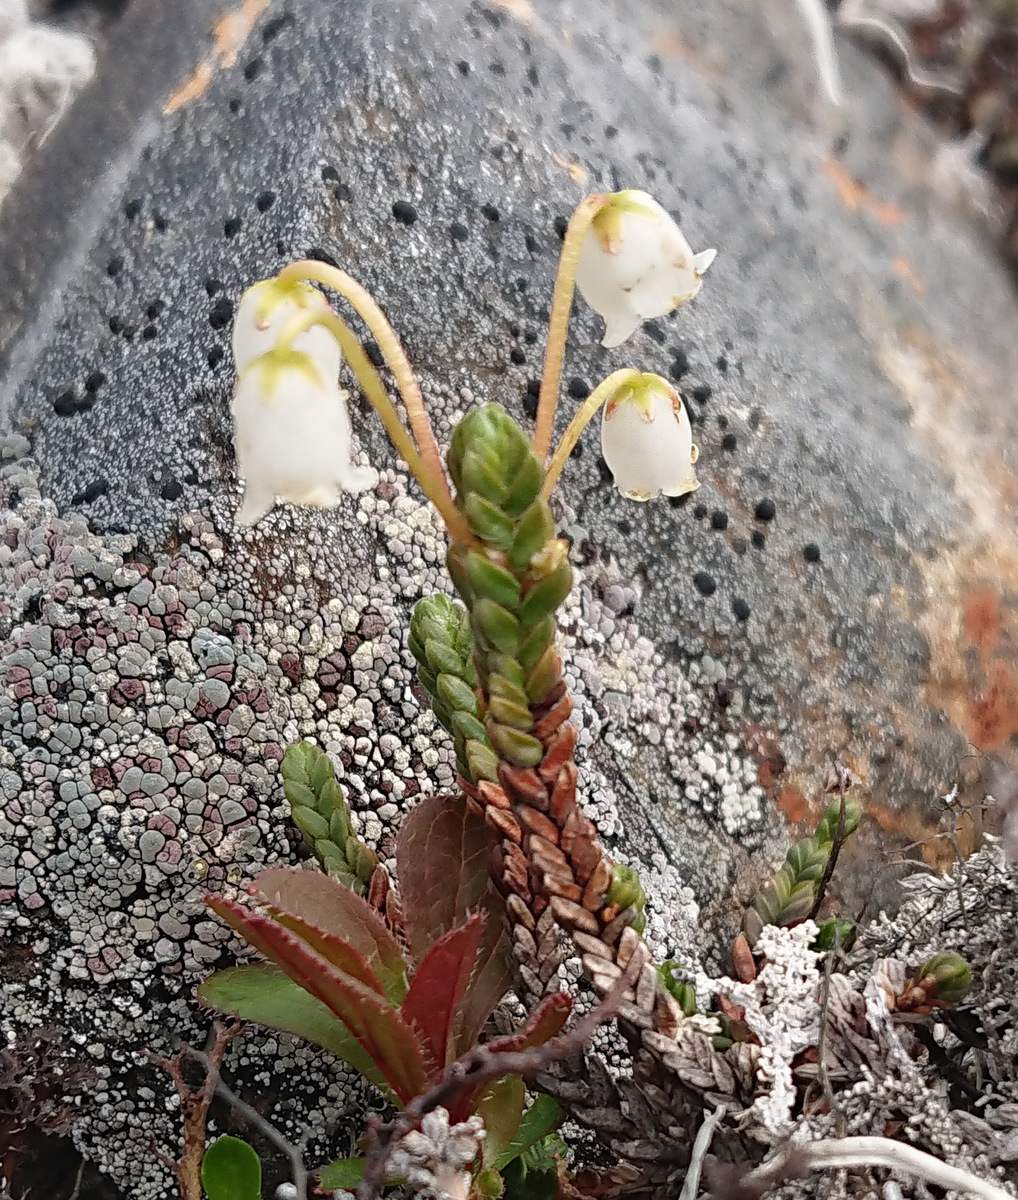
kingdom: Plantae
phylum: Tracheophyta
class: Magnoliopsida
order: Ericales
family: Ericaceae
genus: Cassiope
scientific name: Cassiope tetragona
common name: Arctic bell heather
